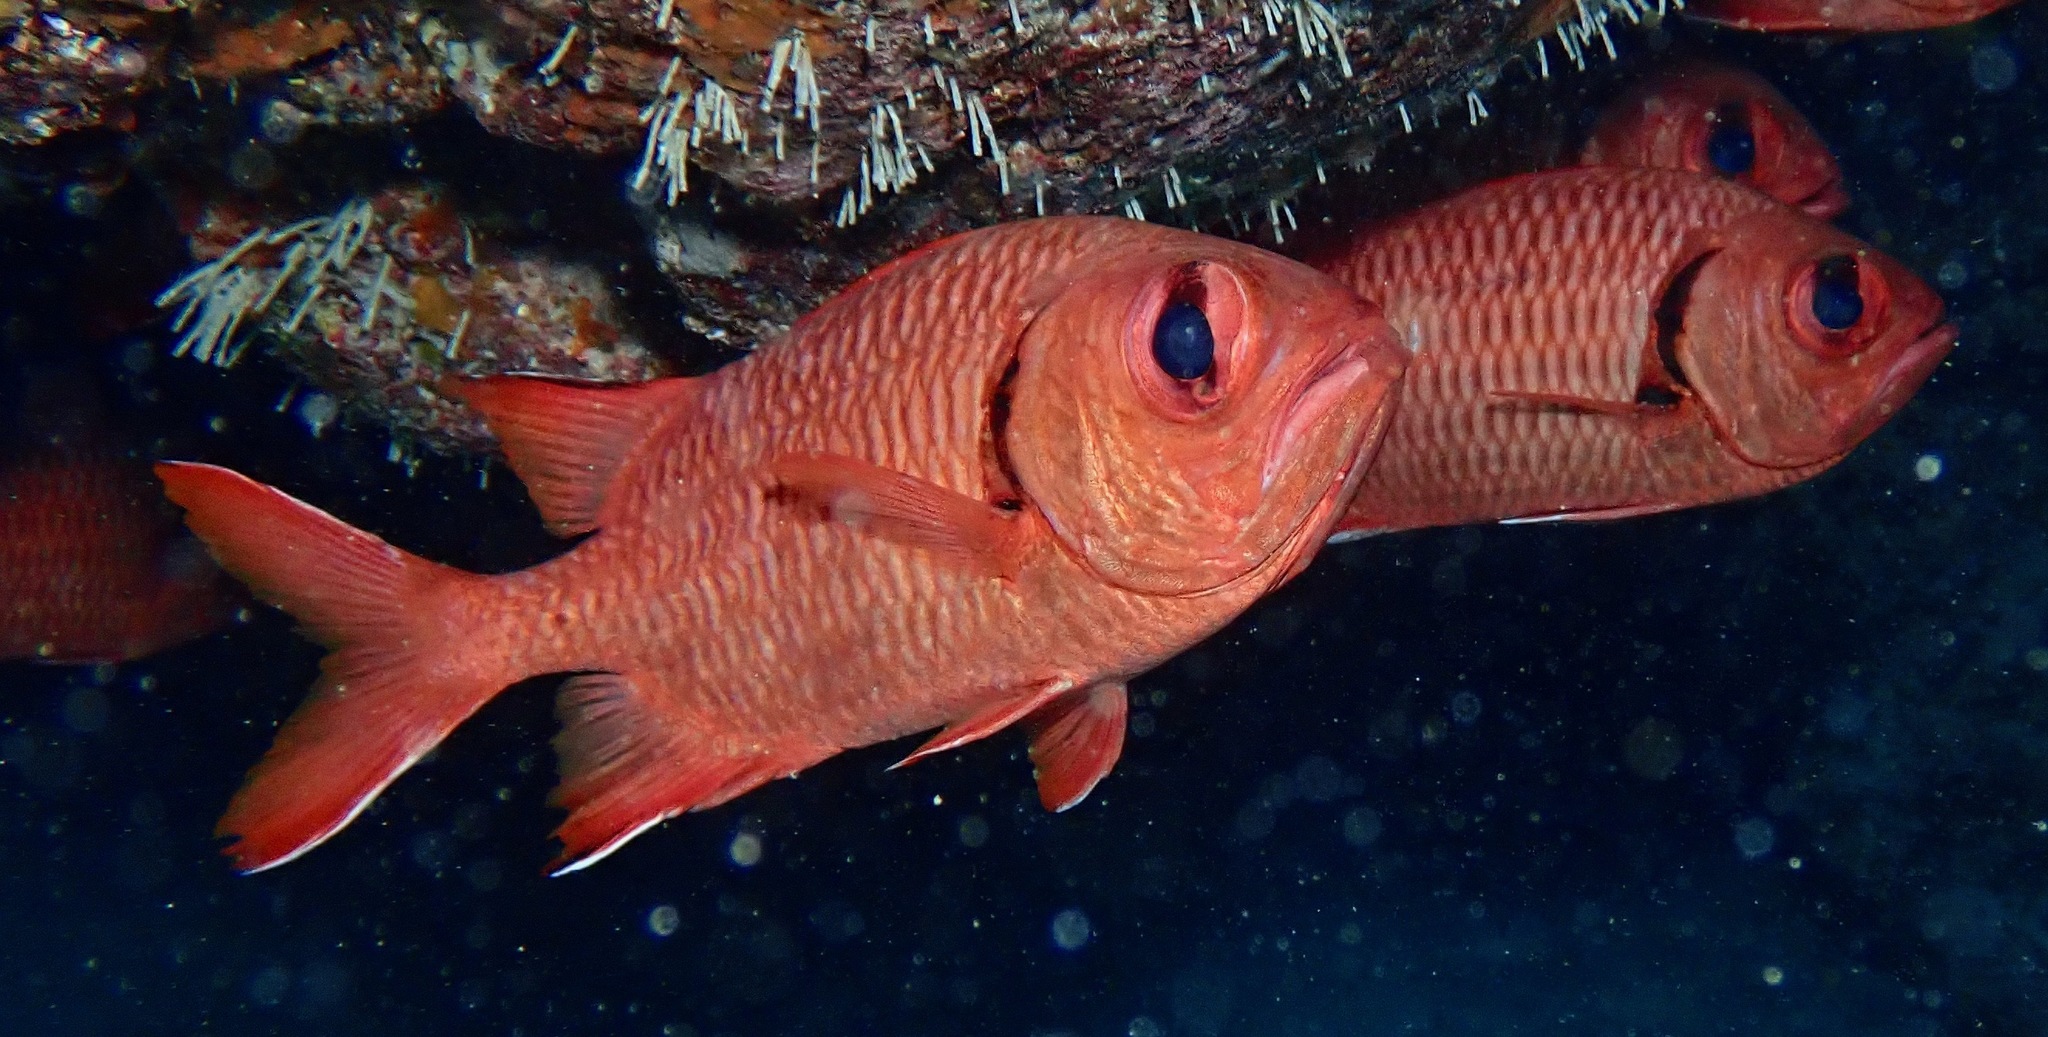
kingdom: Animalia
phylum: Chordata
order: Beryciformes
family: Holocentridae
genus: Myripristis
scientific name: Myripristis murdjan
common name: Big-eye soldierfish
